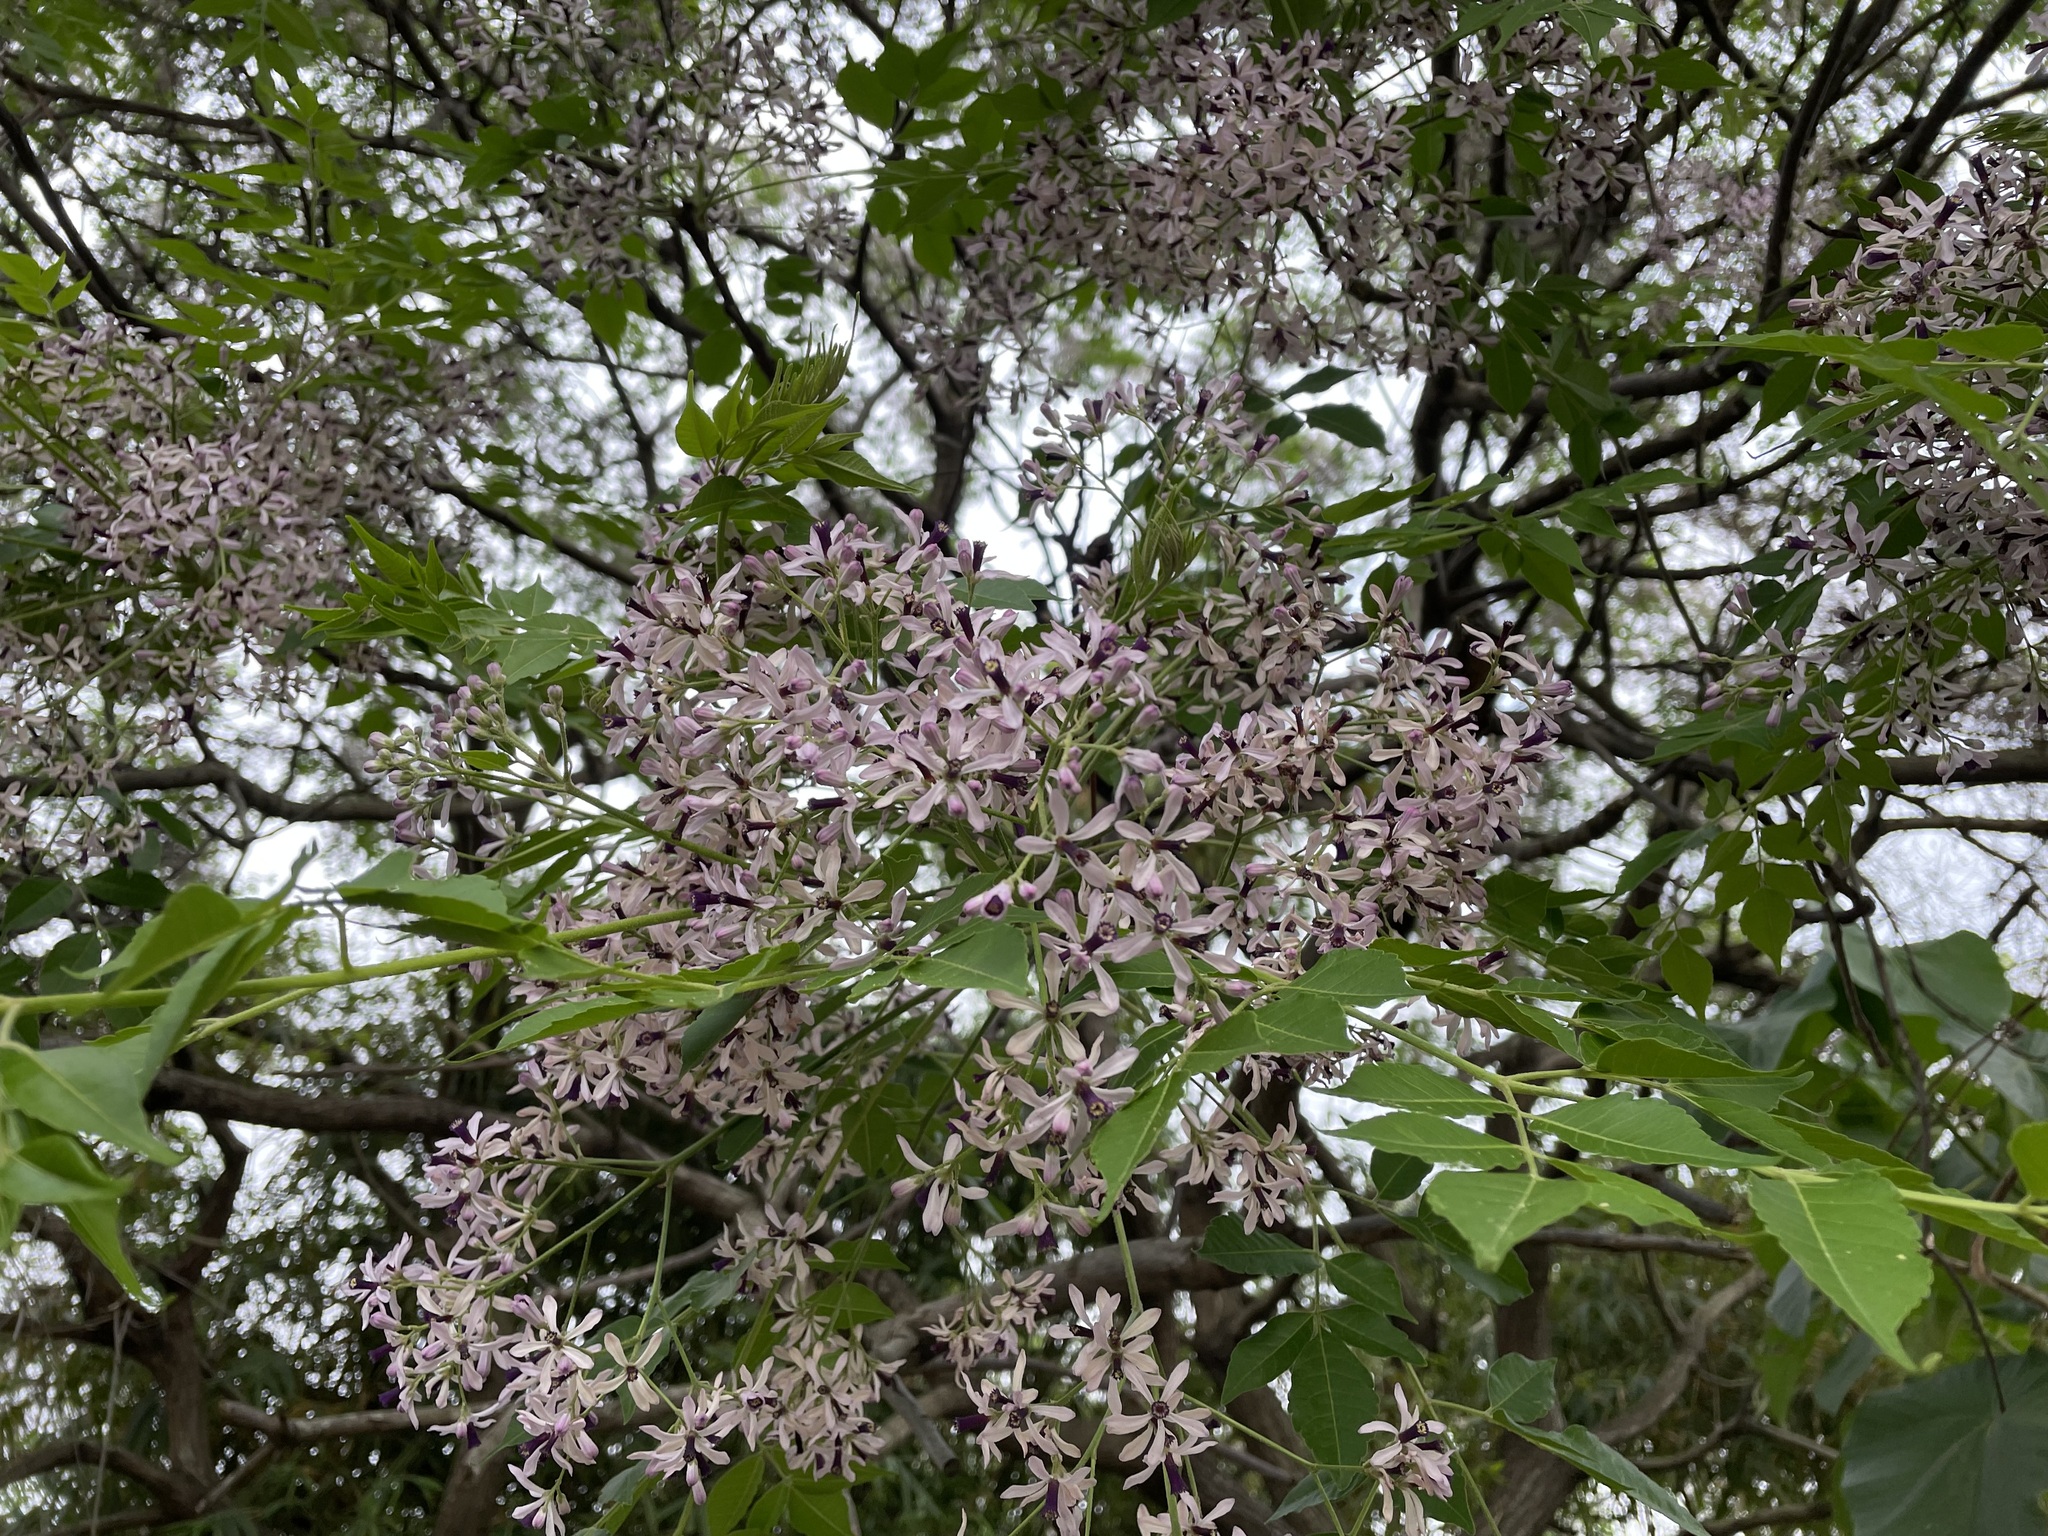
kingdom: Plantae
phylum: Tracheophyta
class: Magnoliopsida
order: Sapindales
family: Meliaceae
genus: Melia
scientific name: Melia azedarach
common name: Chinaberrytree
